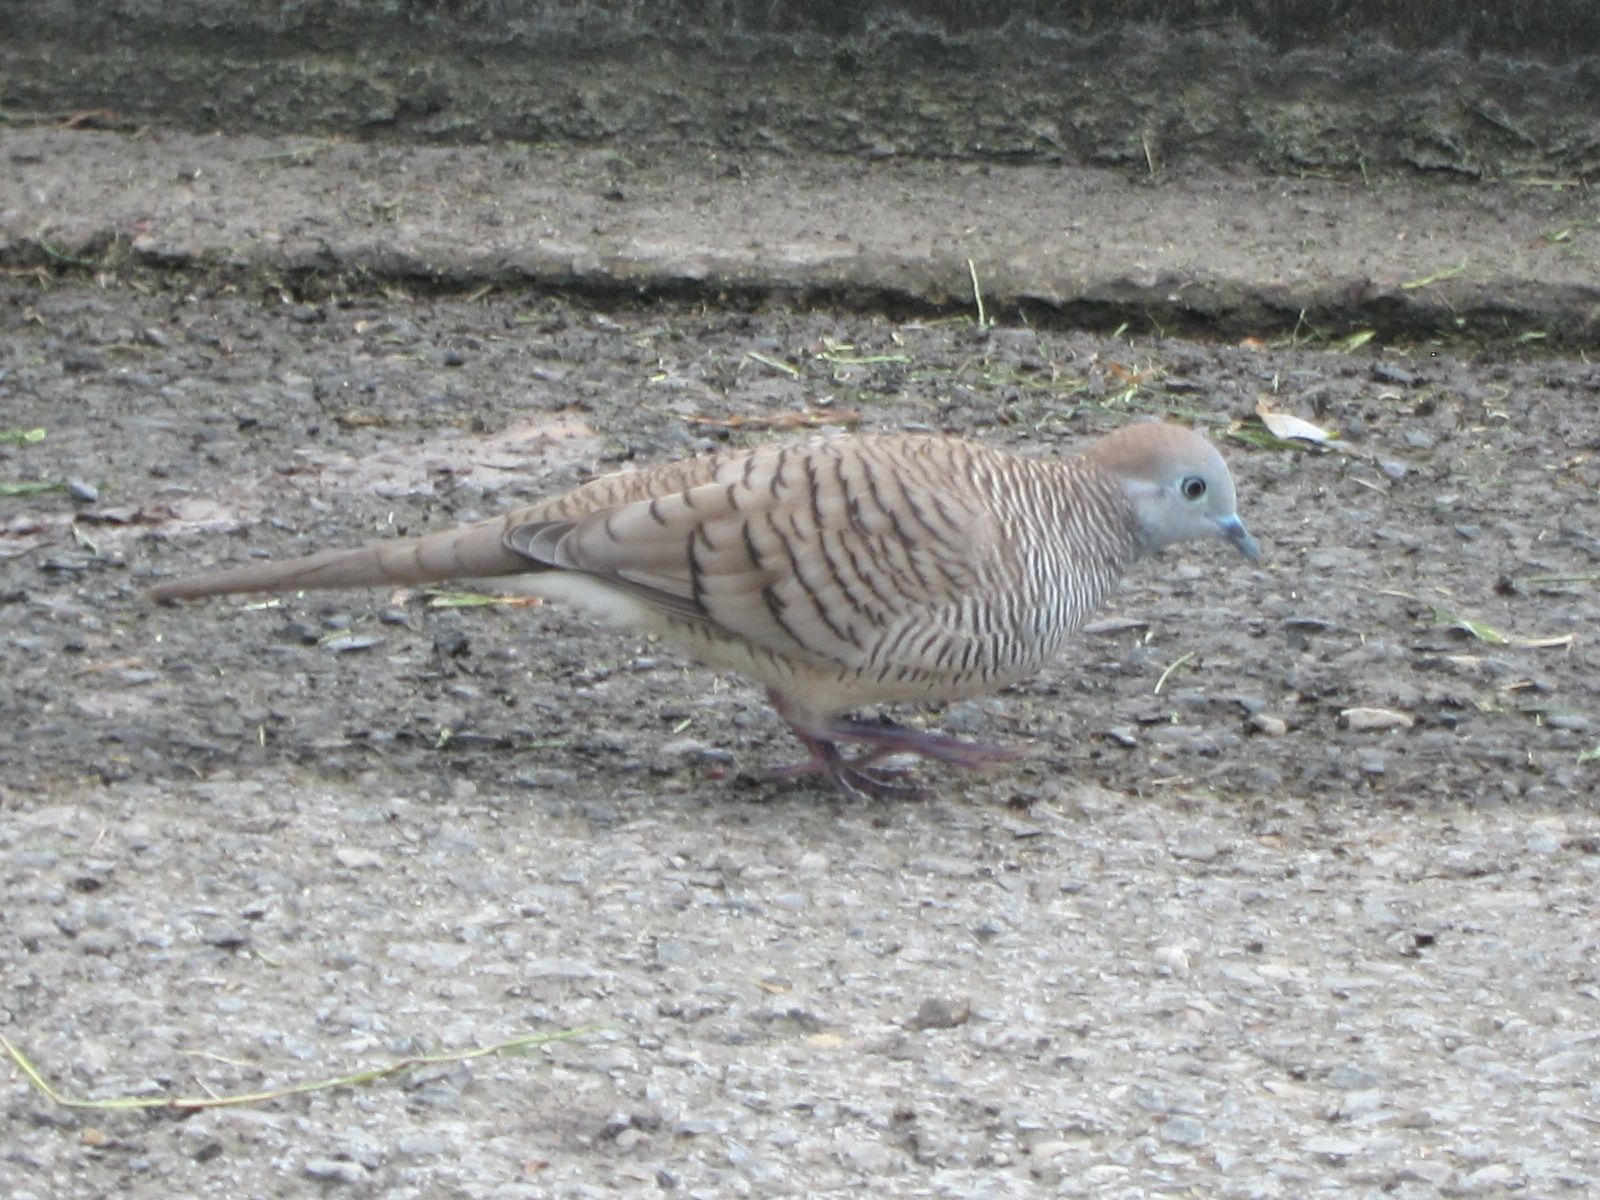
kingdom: Animalia
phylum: Chordata
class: Aves
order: Columbiformes
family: Columbidae
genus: Geopelia
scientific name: Geopelia striata
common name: Zebra dove
